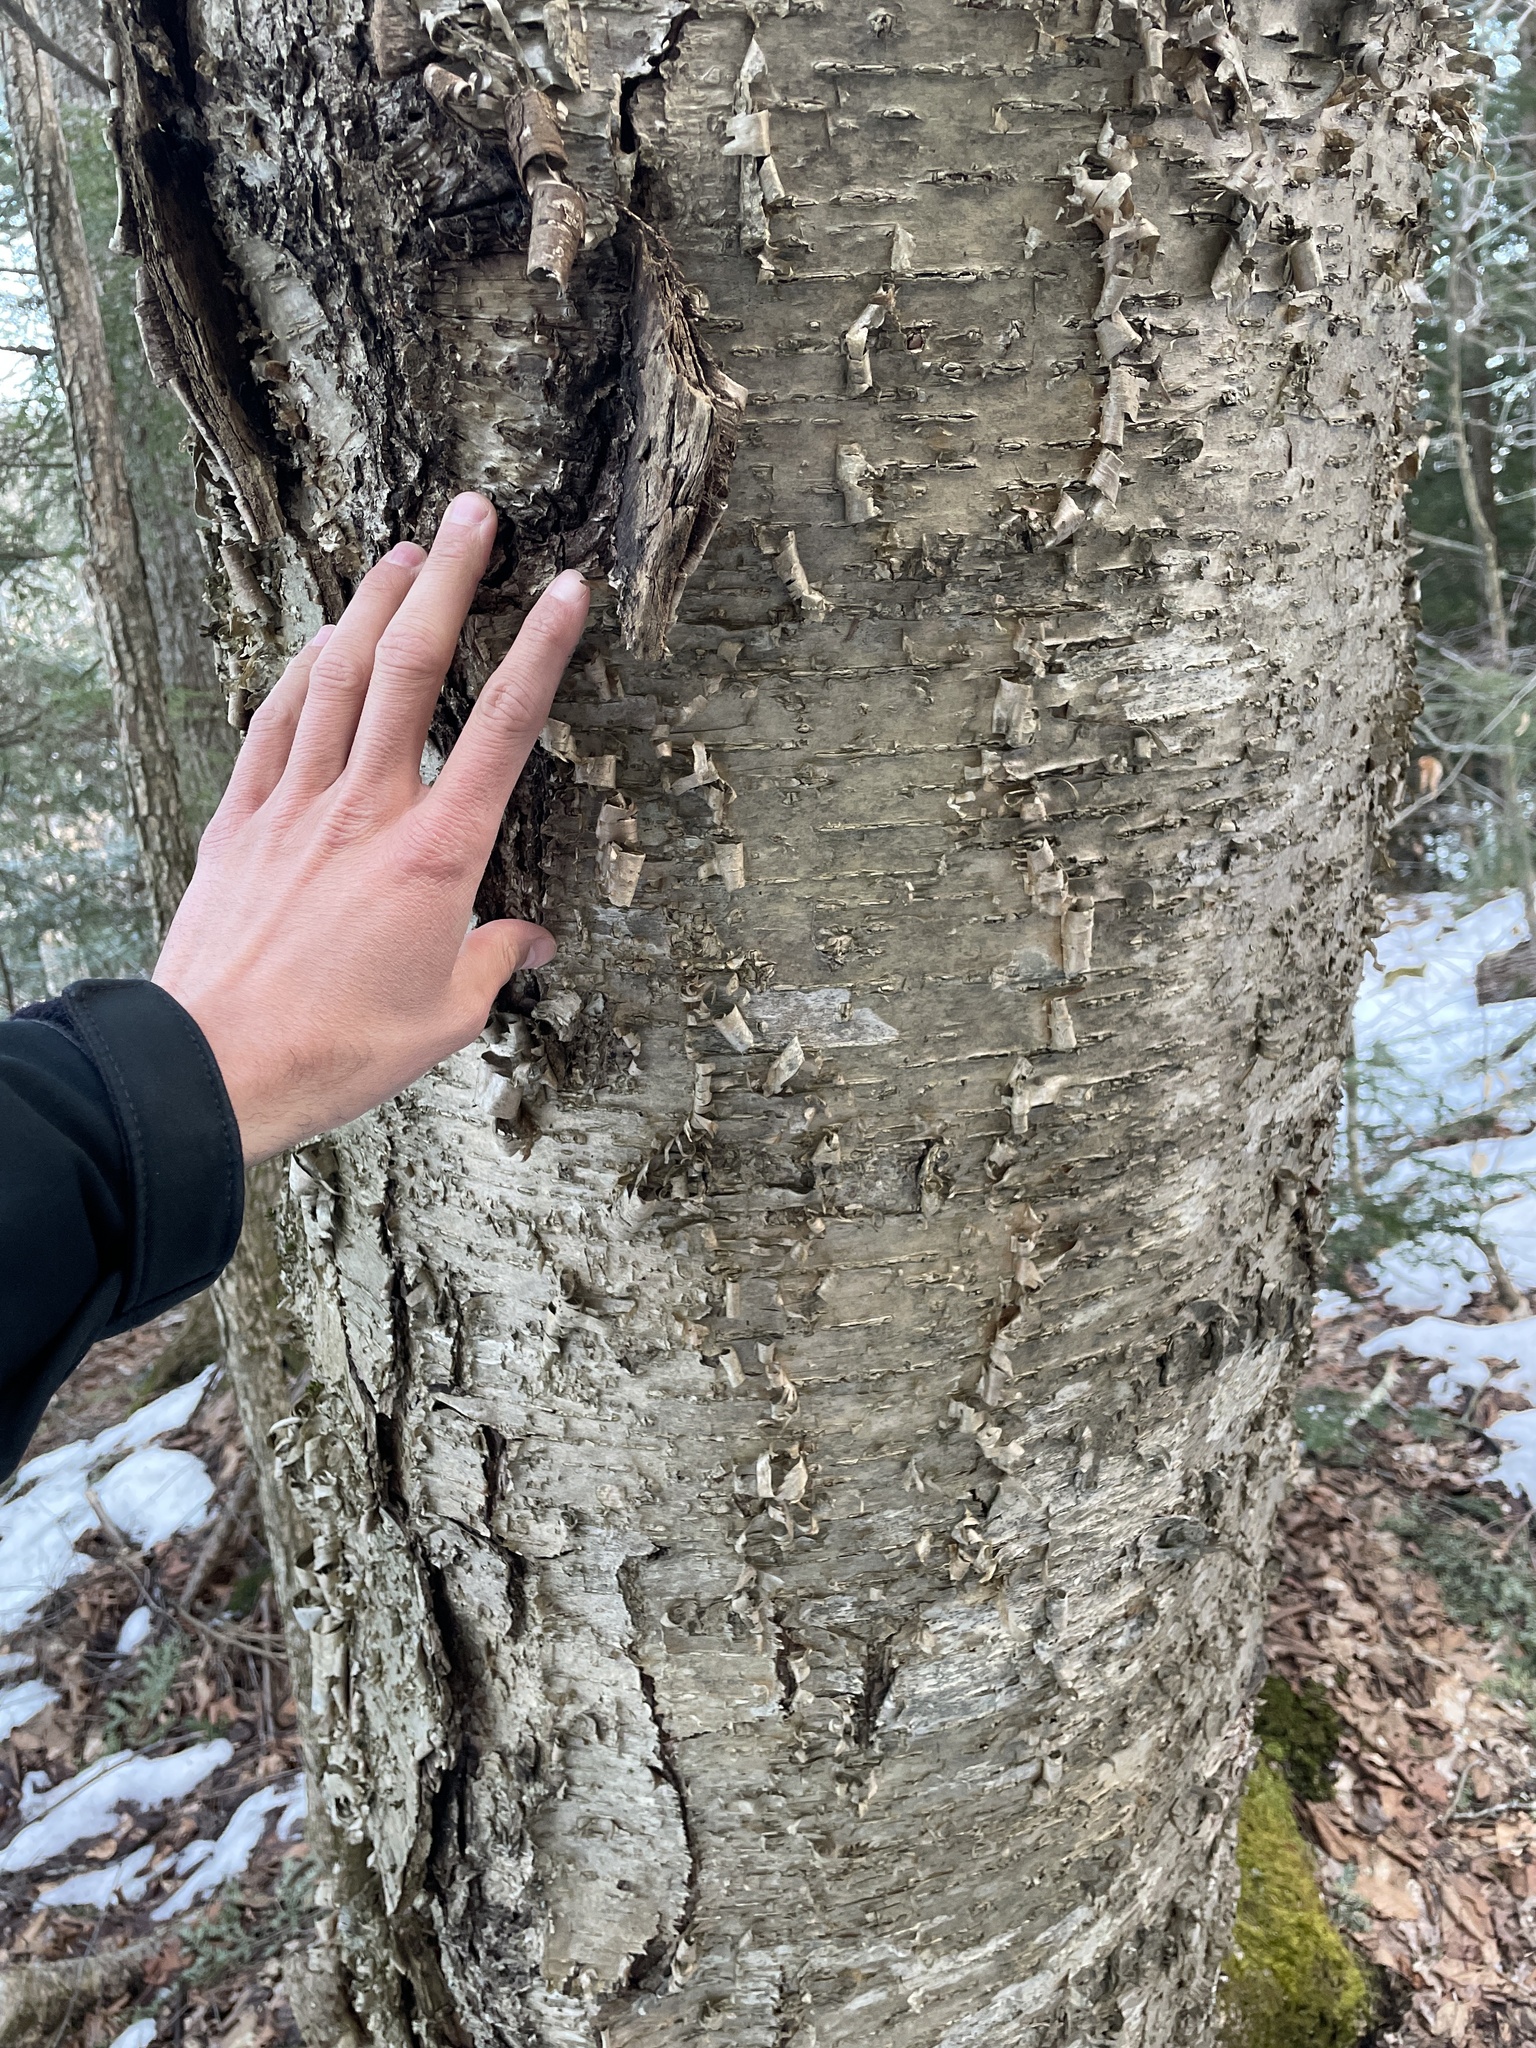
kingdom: Plantae
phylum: Tracheophyta
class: Magnoliopsida
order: Fagales
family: Betulaceae
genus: Betula
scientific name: Betula alleghaniensis
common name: Yellow birch
